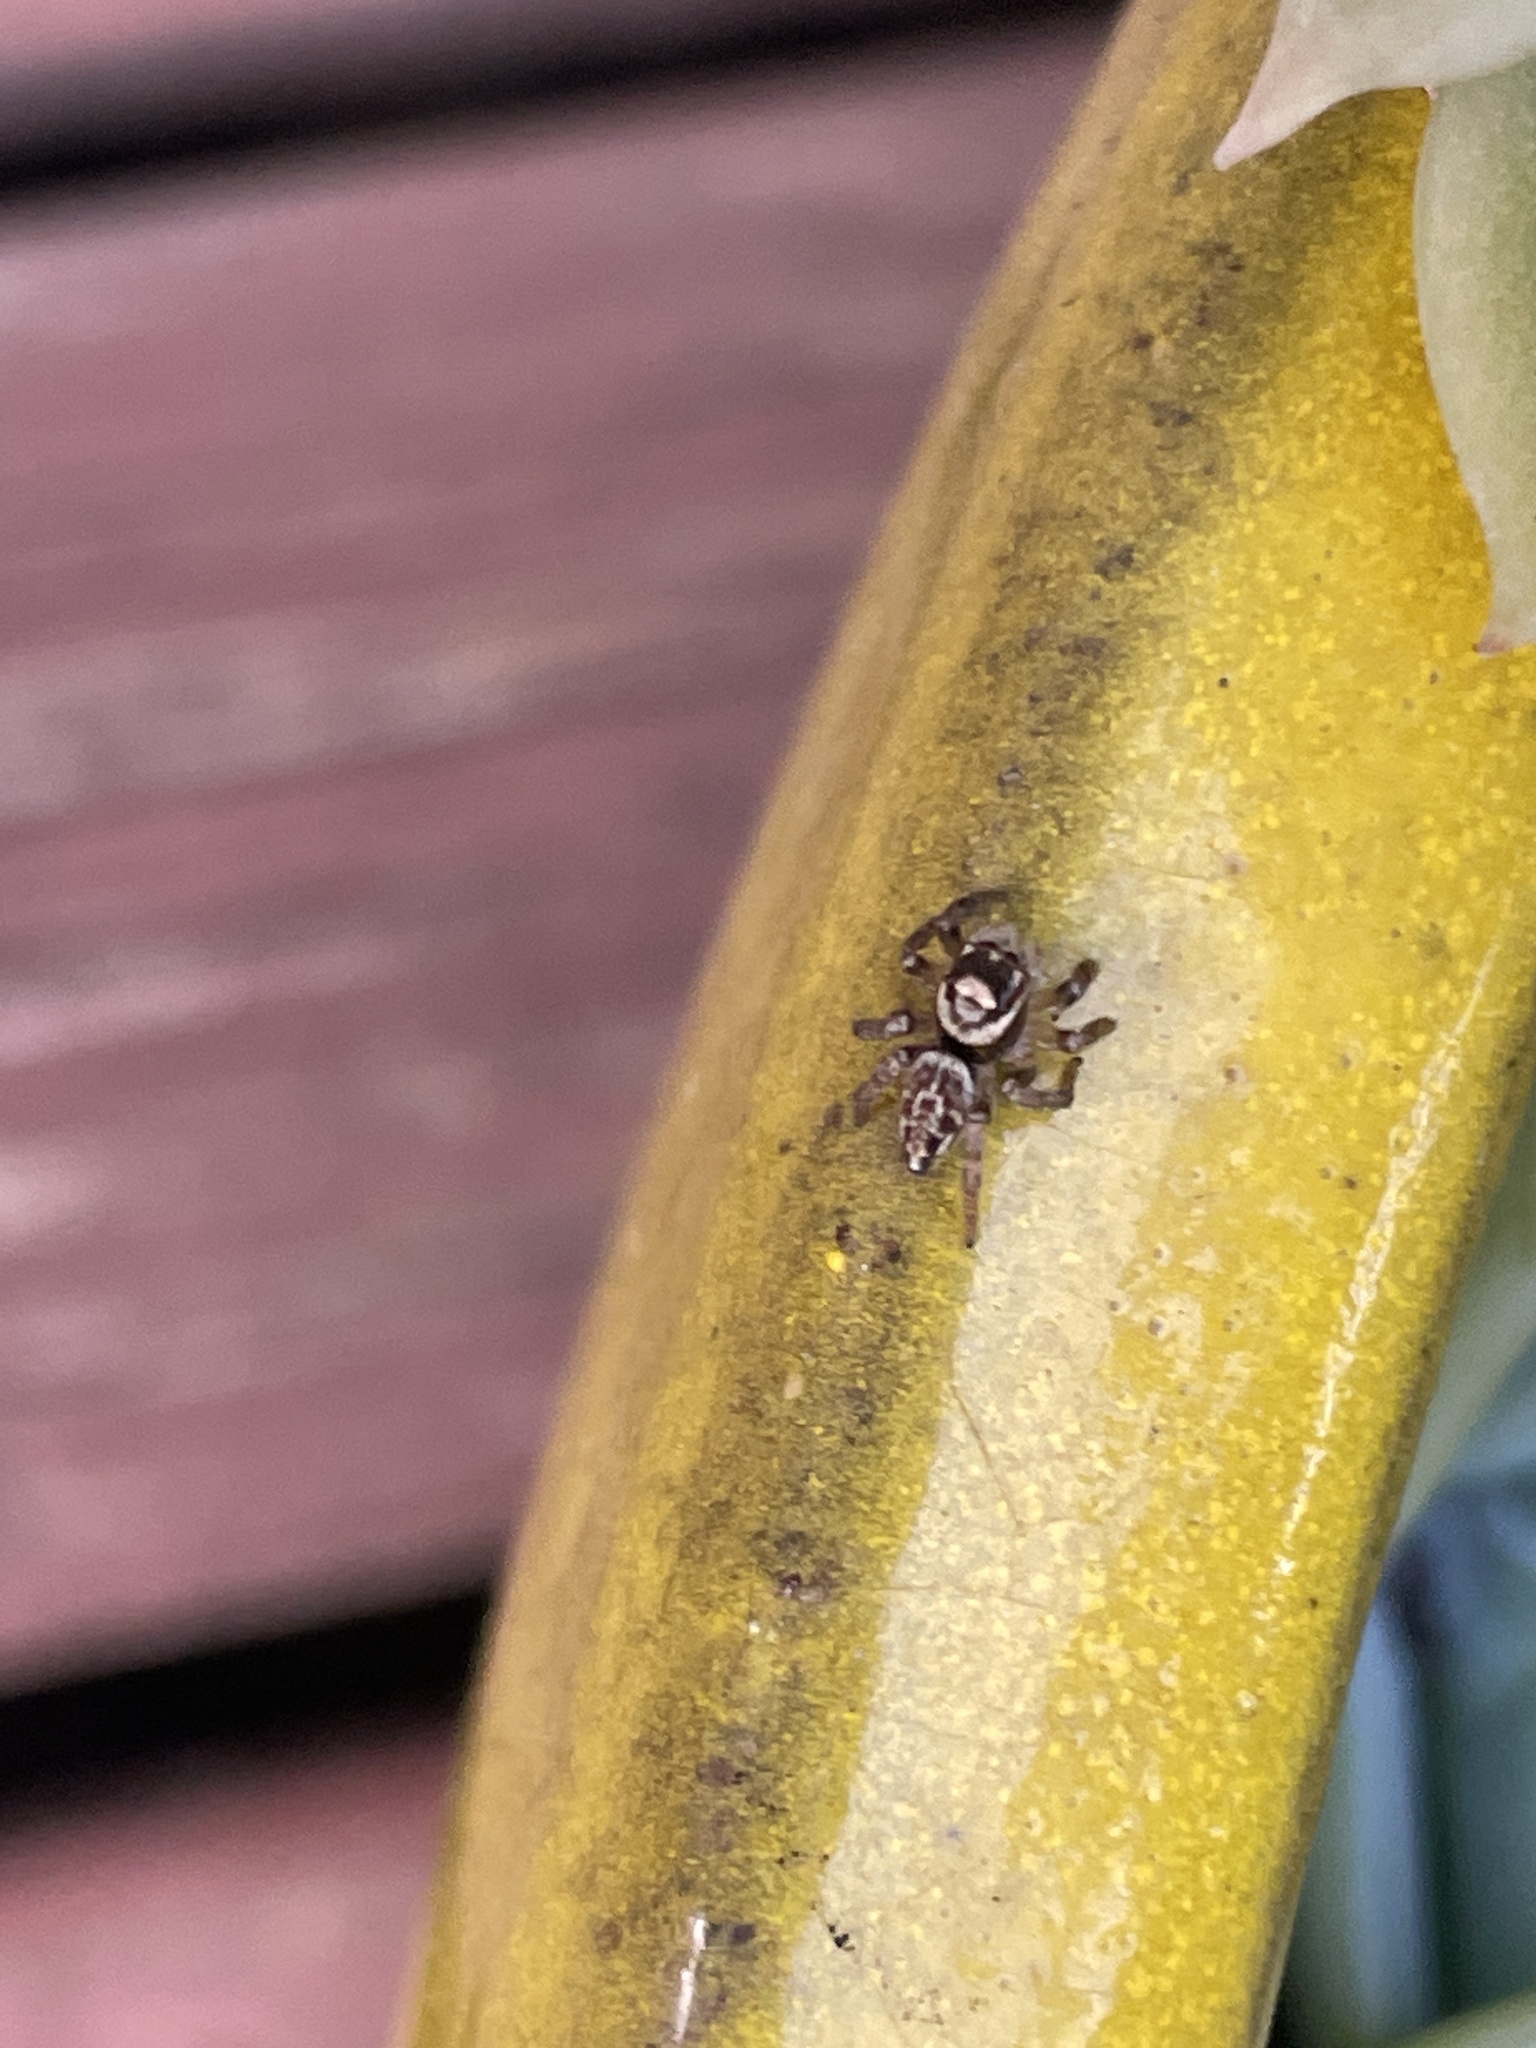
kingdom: Animalia
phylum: Arthropoda
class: Arachnida
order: Araneae
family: Salticidae
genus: Maratus
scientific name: Maratus griseus
